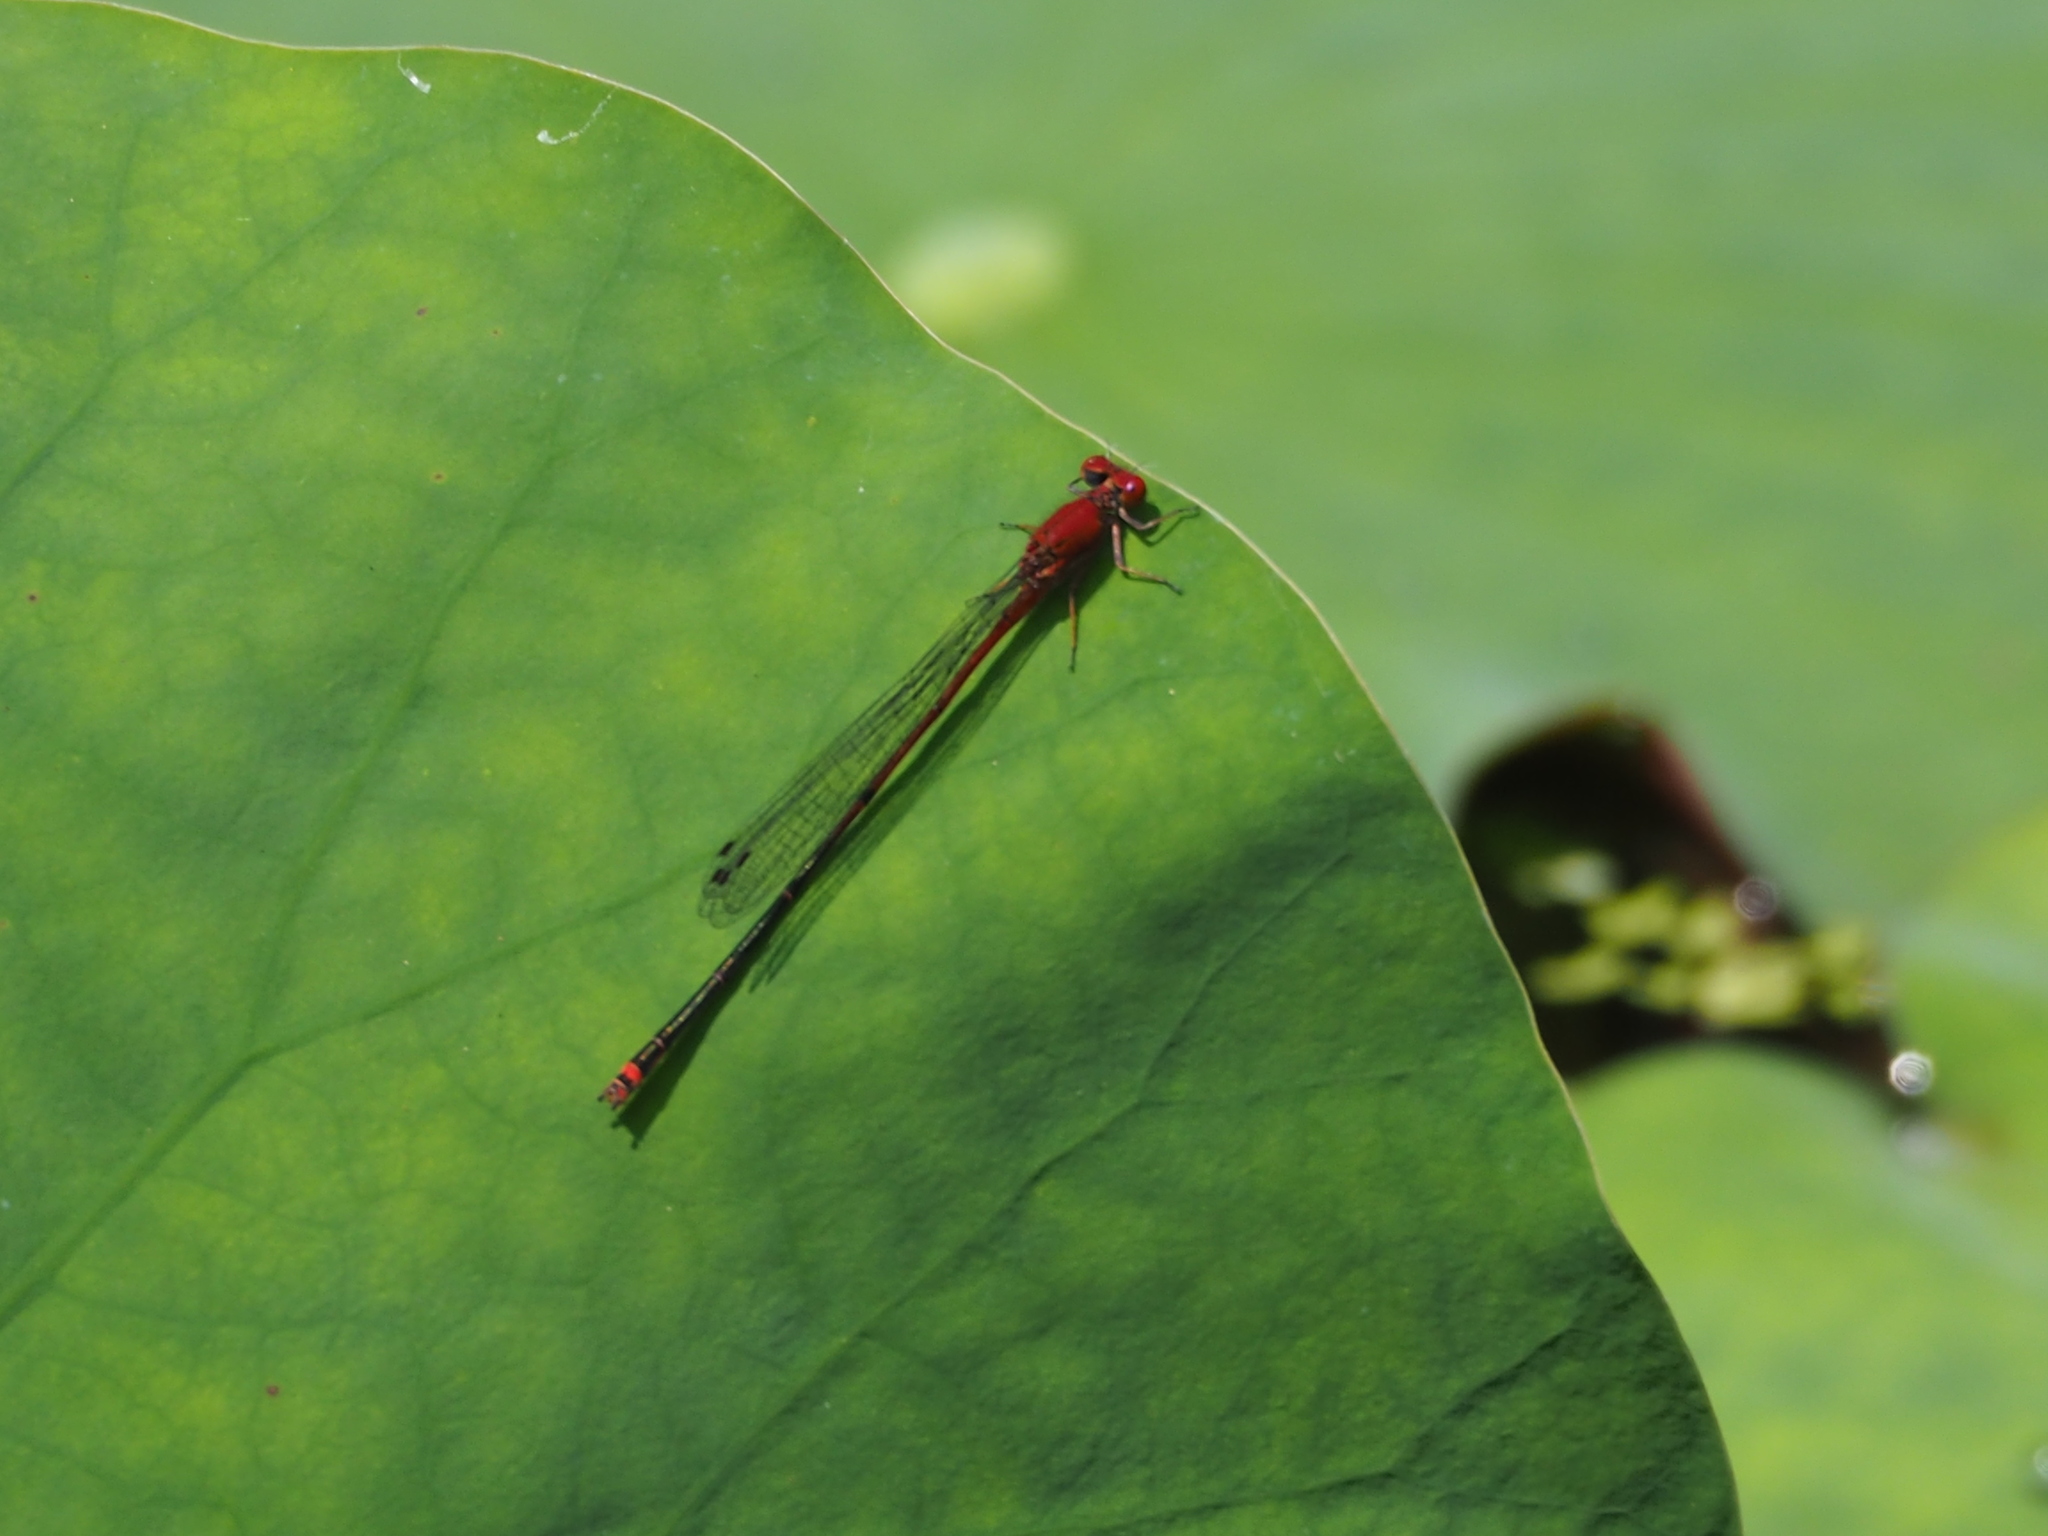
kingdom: Animalia
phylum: Arthropoda
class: Insecta
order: Odonata
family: Coenagrionidae
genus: Pseudagrion
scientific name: Pseudagrion pilidorsum
